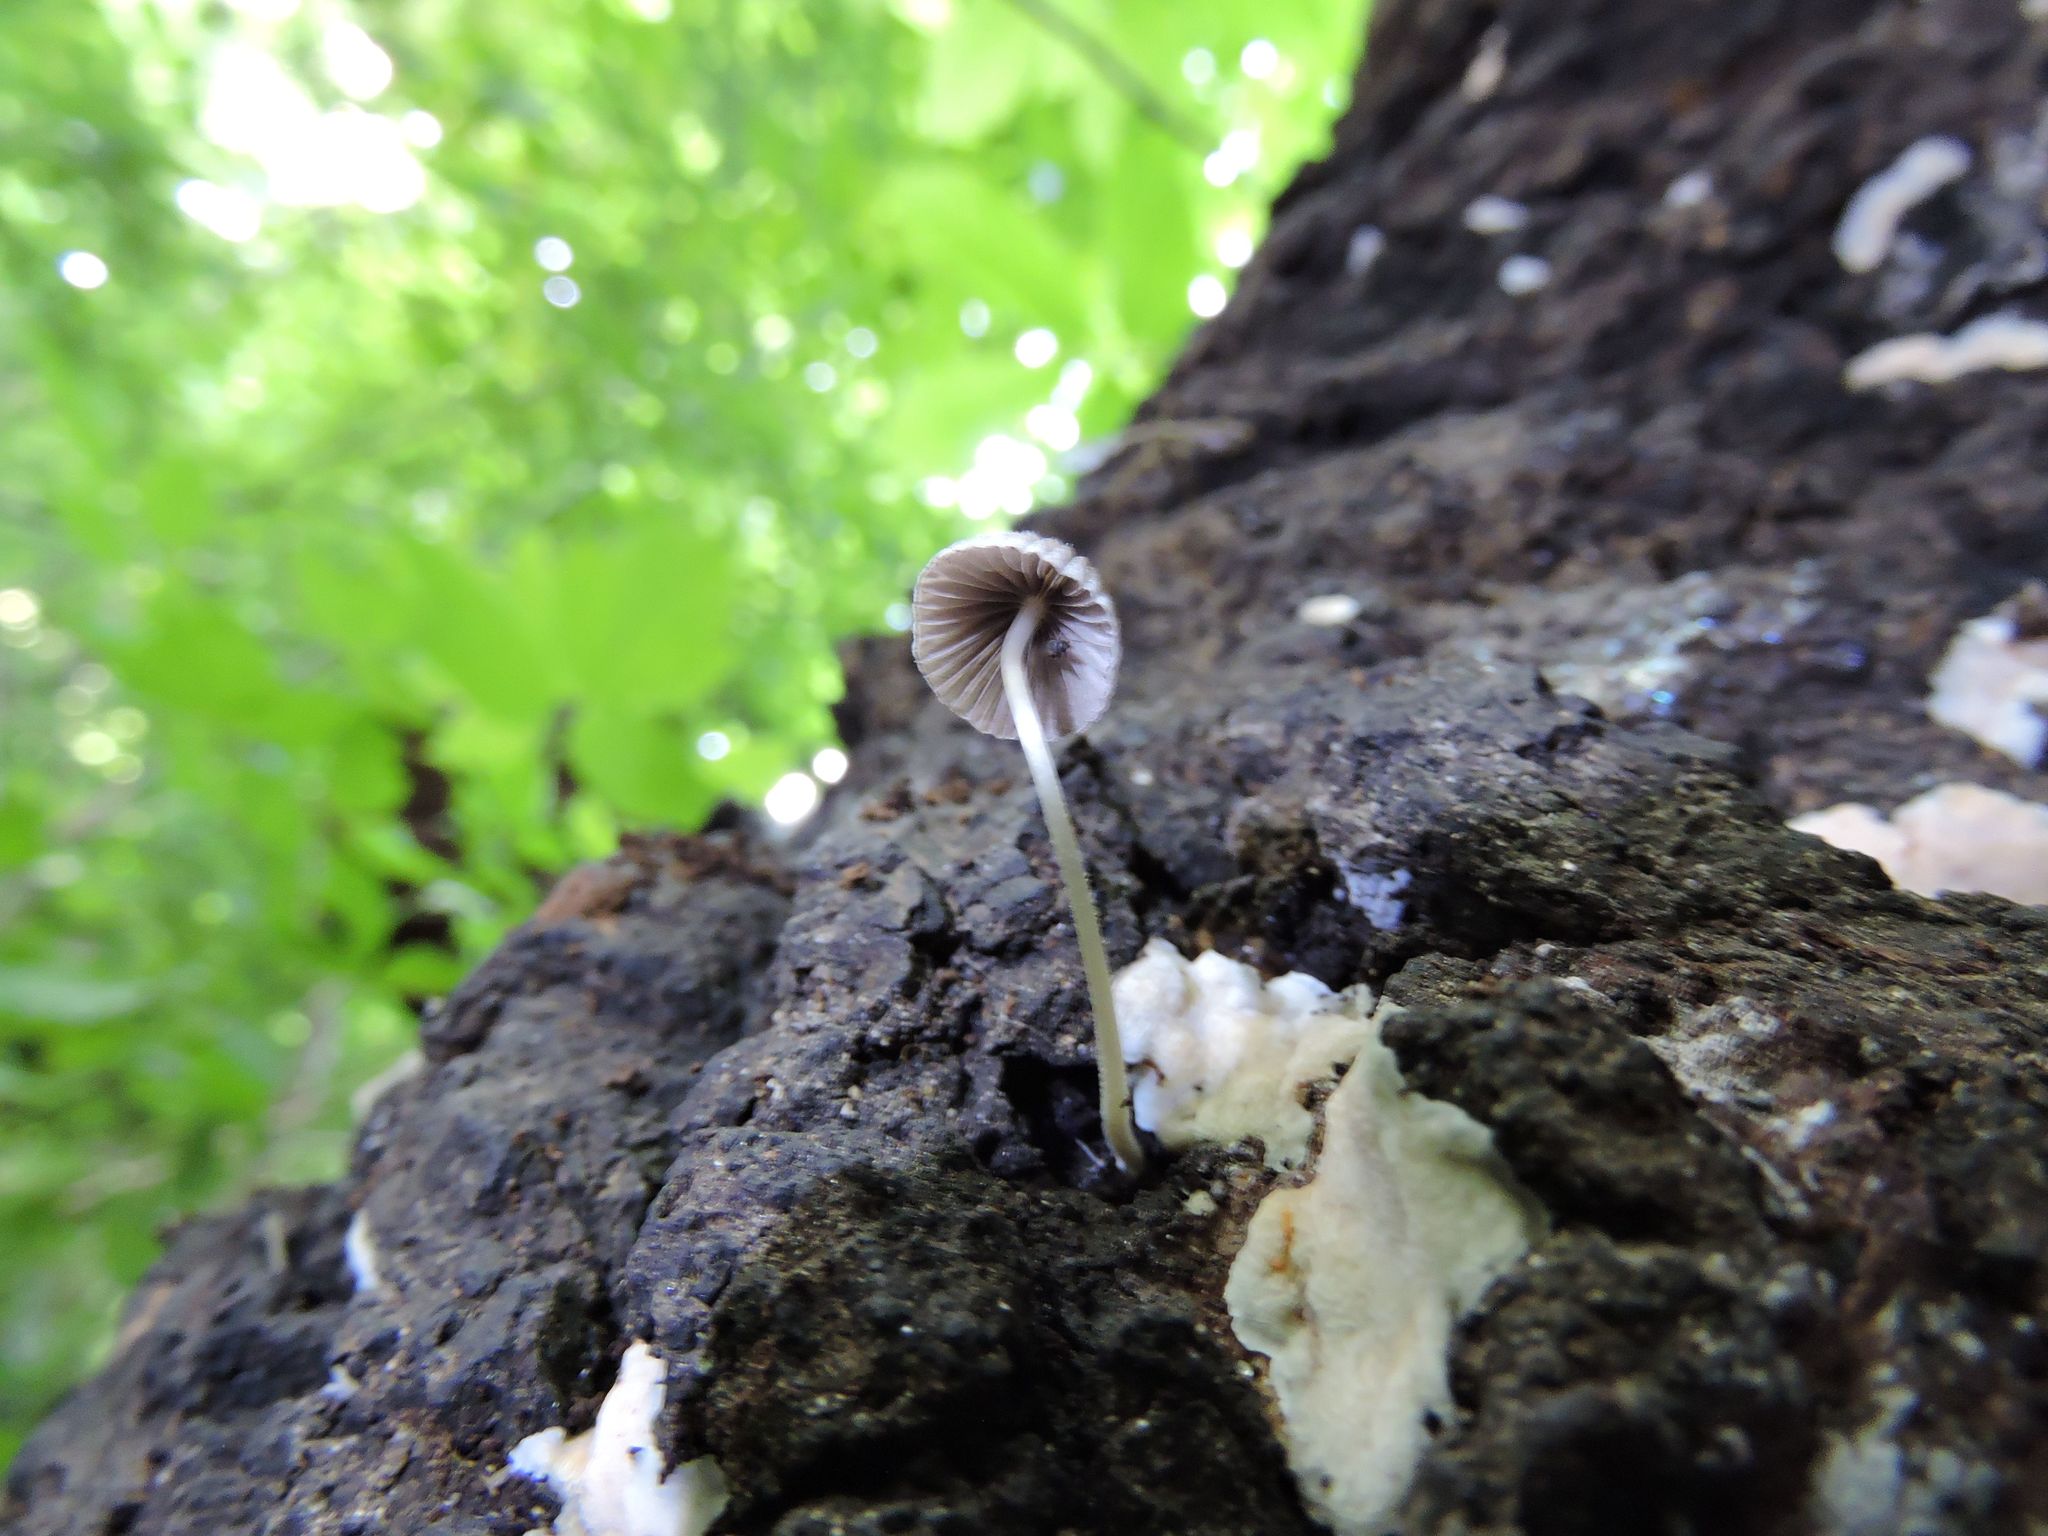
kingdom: Fungi
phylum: Basidiomycota
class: Agaricomycetes
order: Agaricales
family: Psathyrellaceae
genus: Coprinellus
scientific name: Coprinellus disseminatus
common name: Fairies' bonnets
